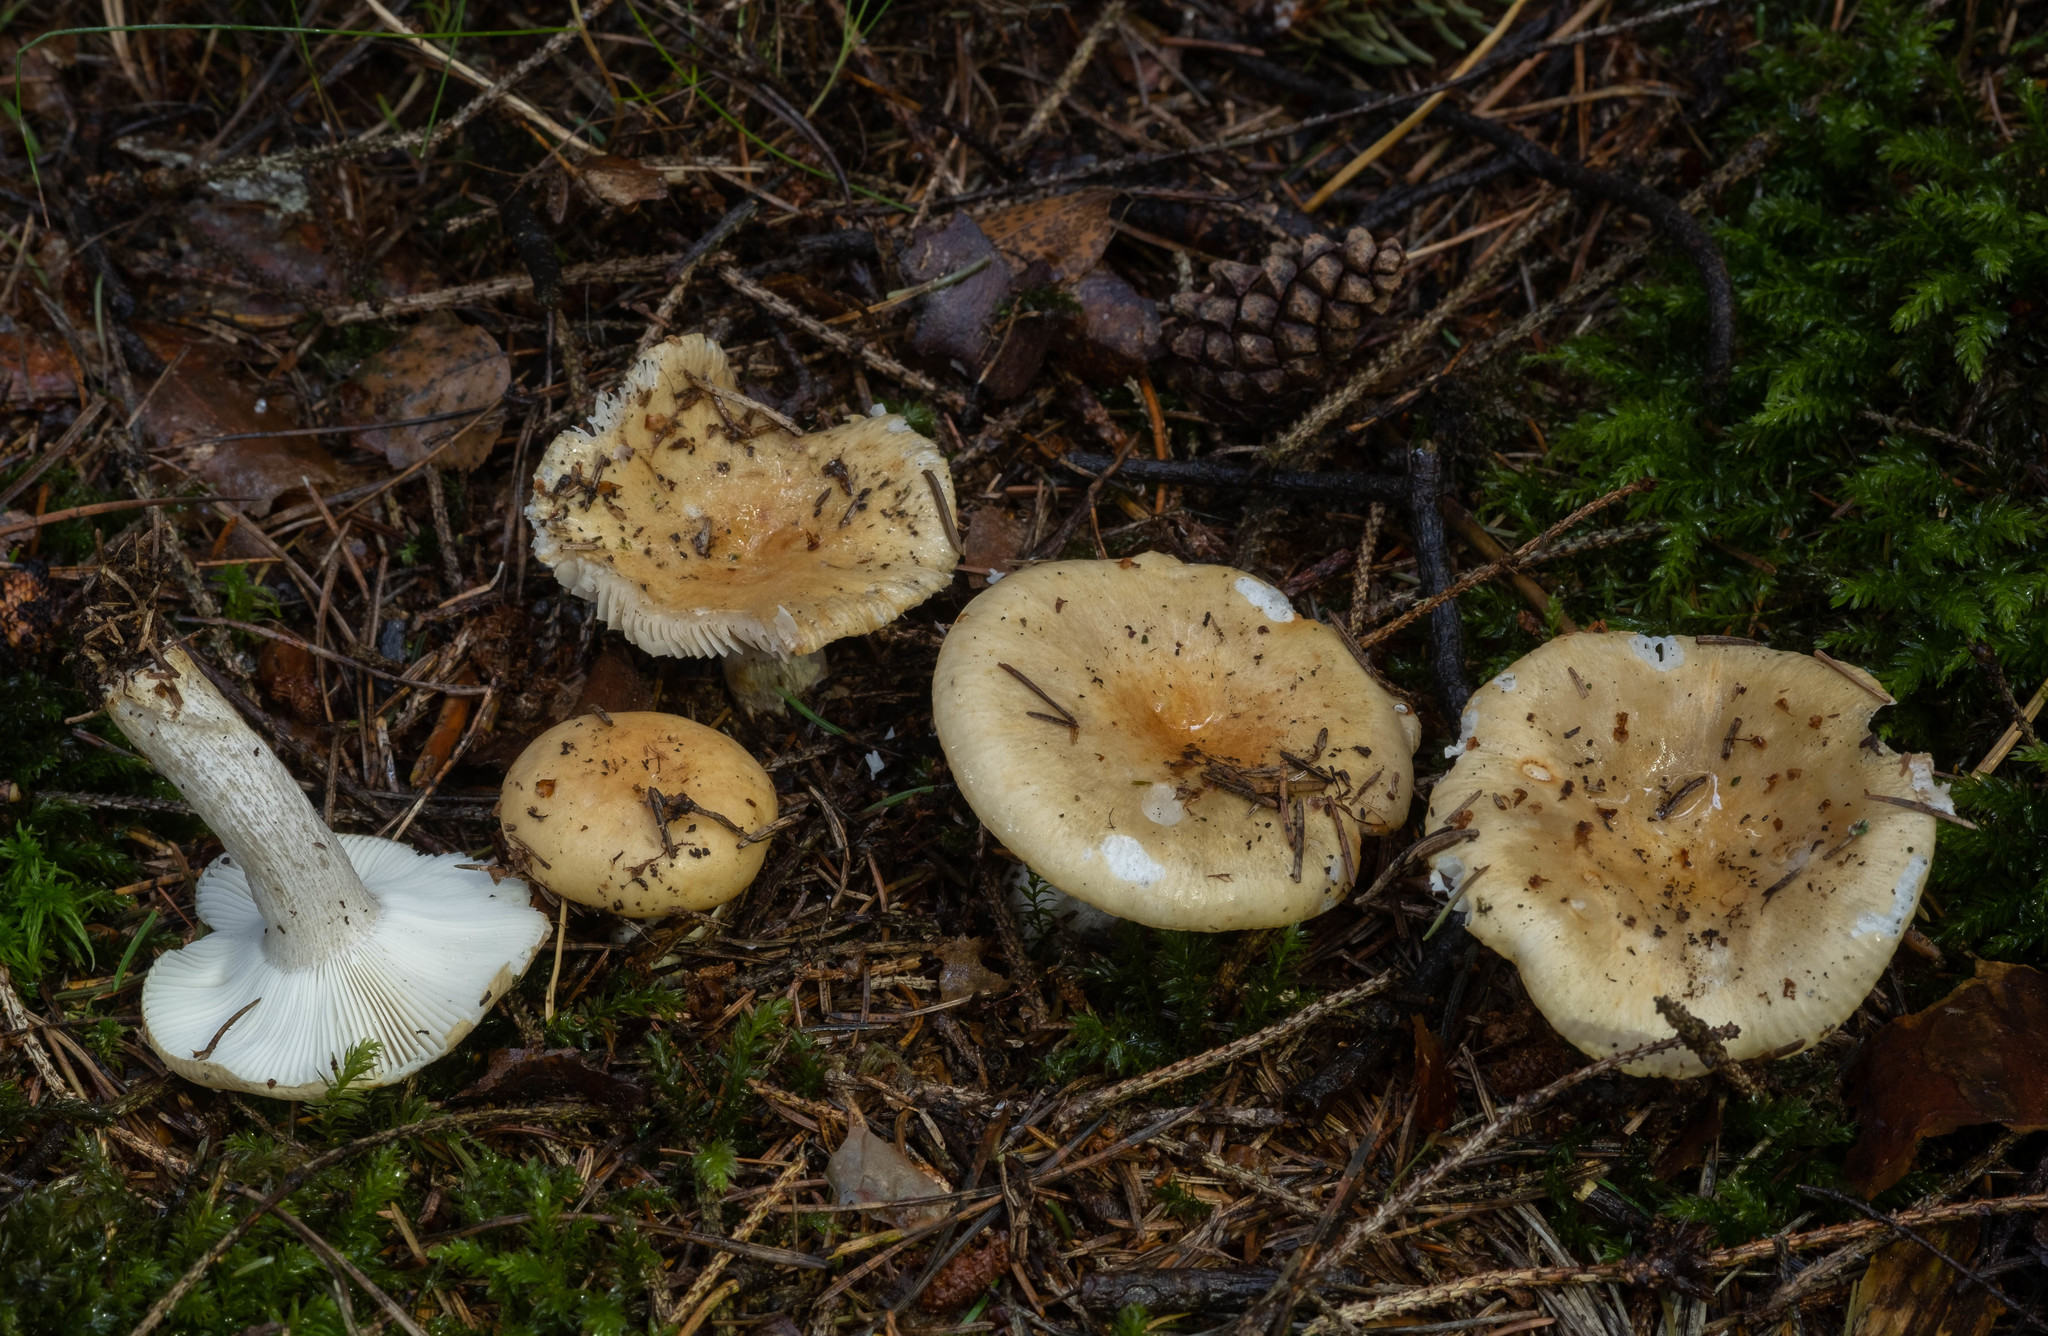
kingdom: Fungi
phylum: Basidiomycota
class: Agaricomycetes
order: Russulales
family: Russulaceae
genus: Russula
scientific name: Russula ochroleuca
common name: Common yellow russula
